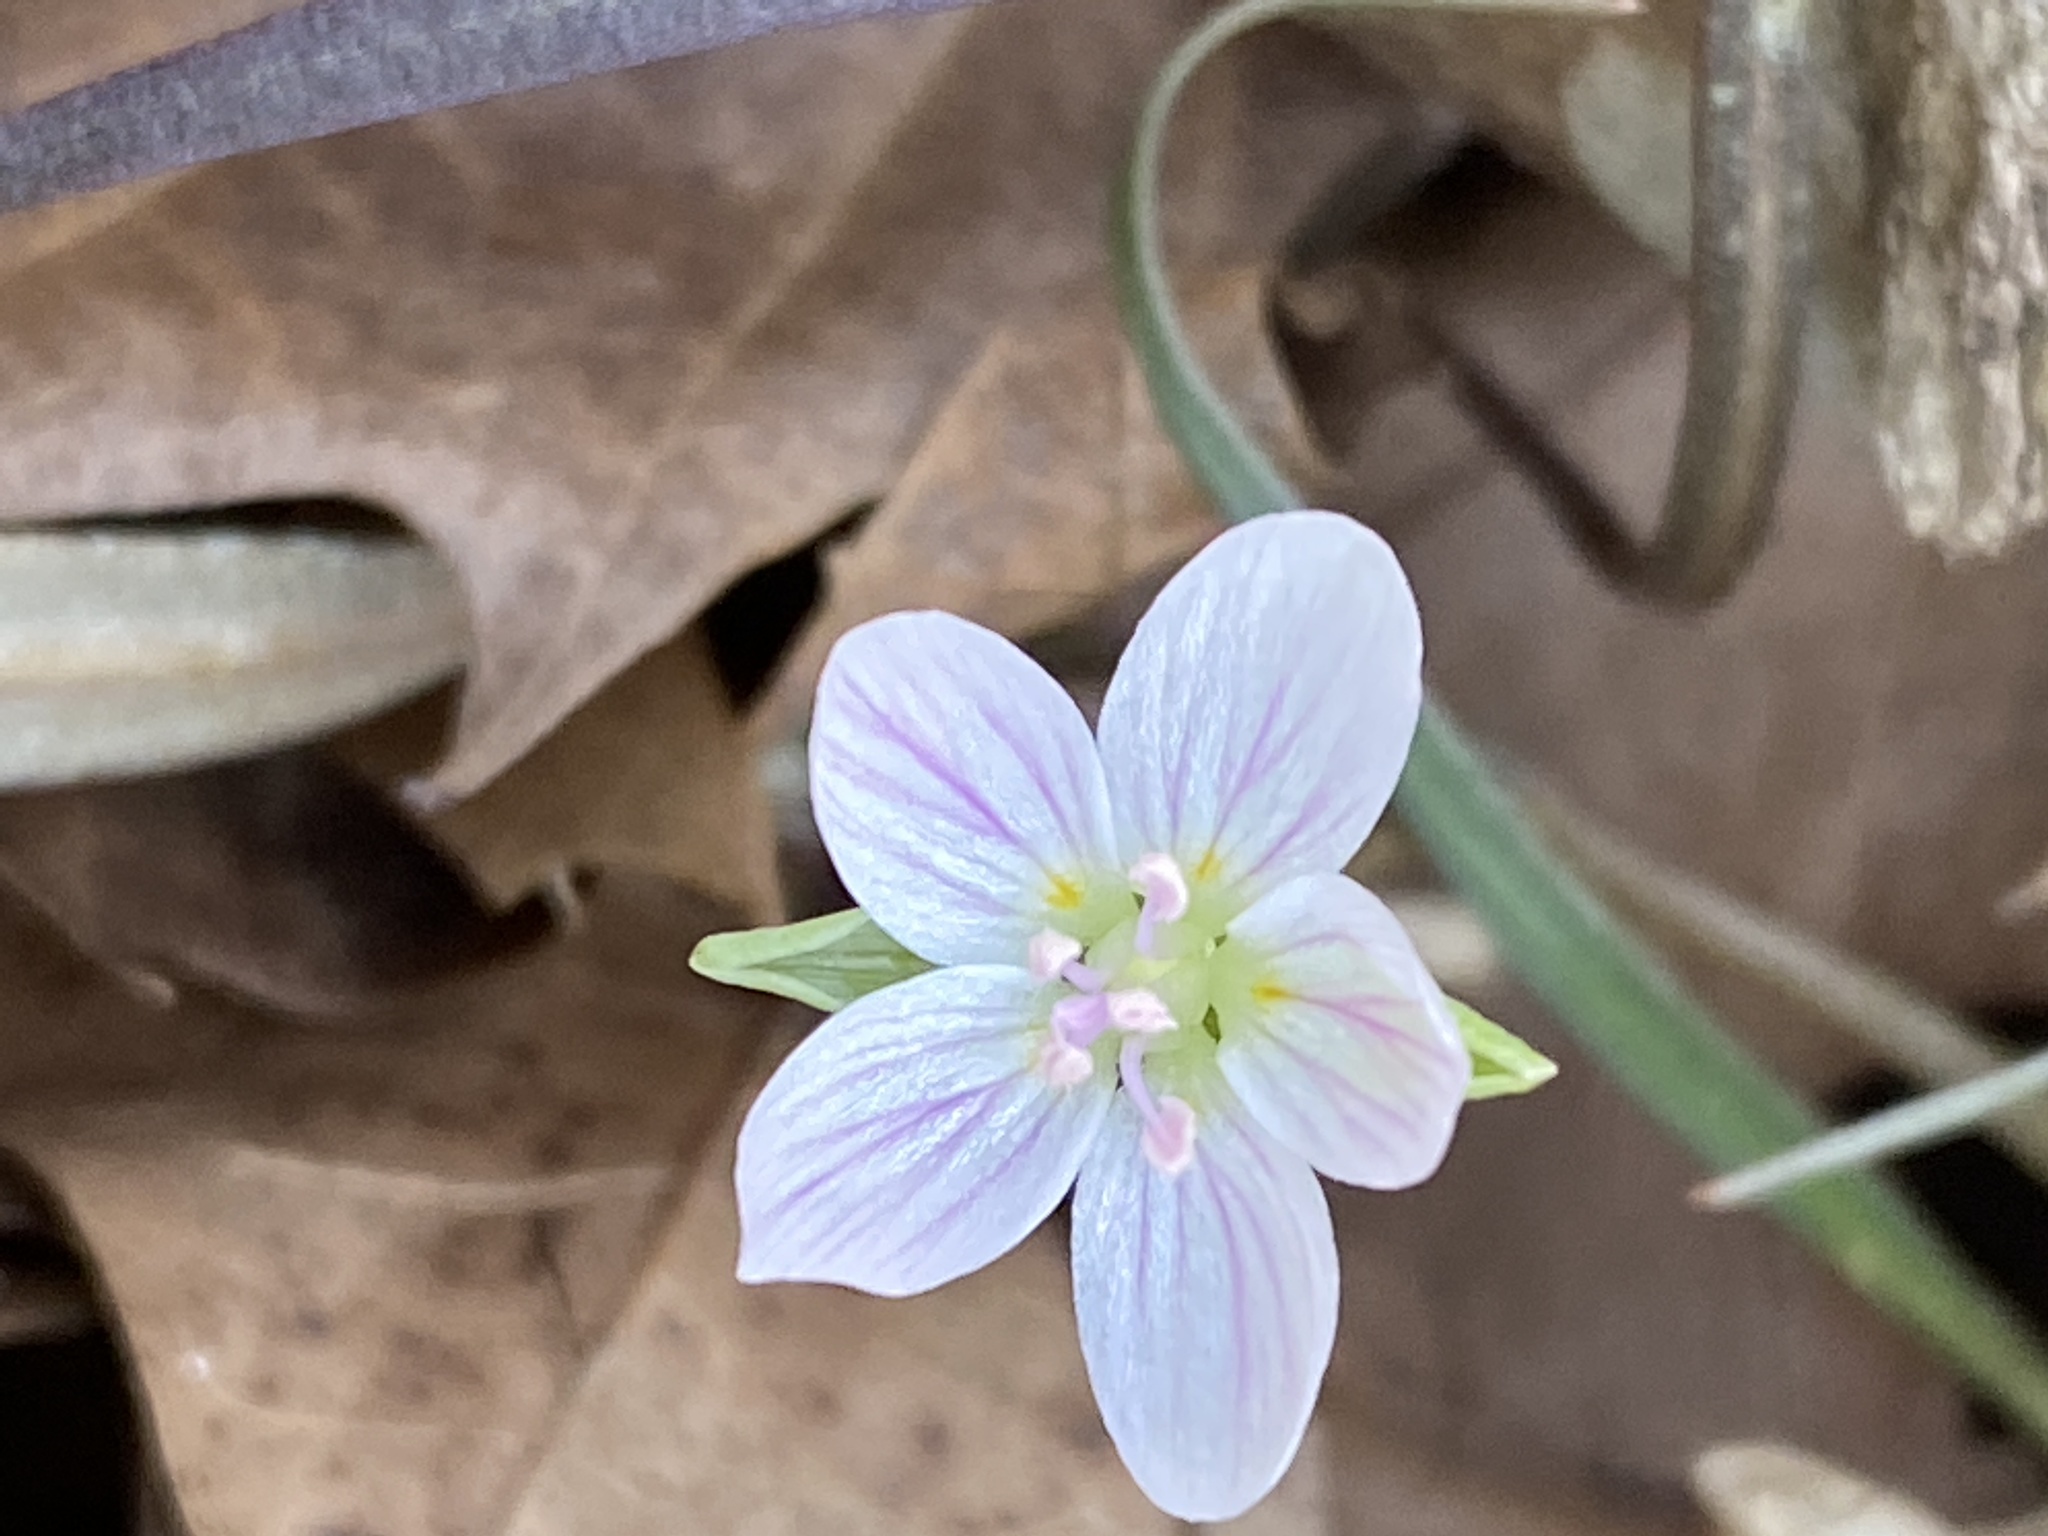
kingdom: Plantae
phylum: Tracheophyta
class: Magnoliopsida
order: Caryophyllales
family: Montiaceae
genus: Claytonia
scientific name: Claytonia virginica
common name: Virginia springbeauty
